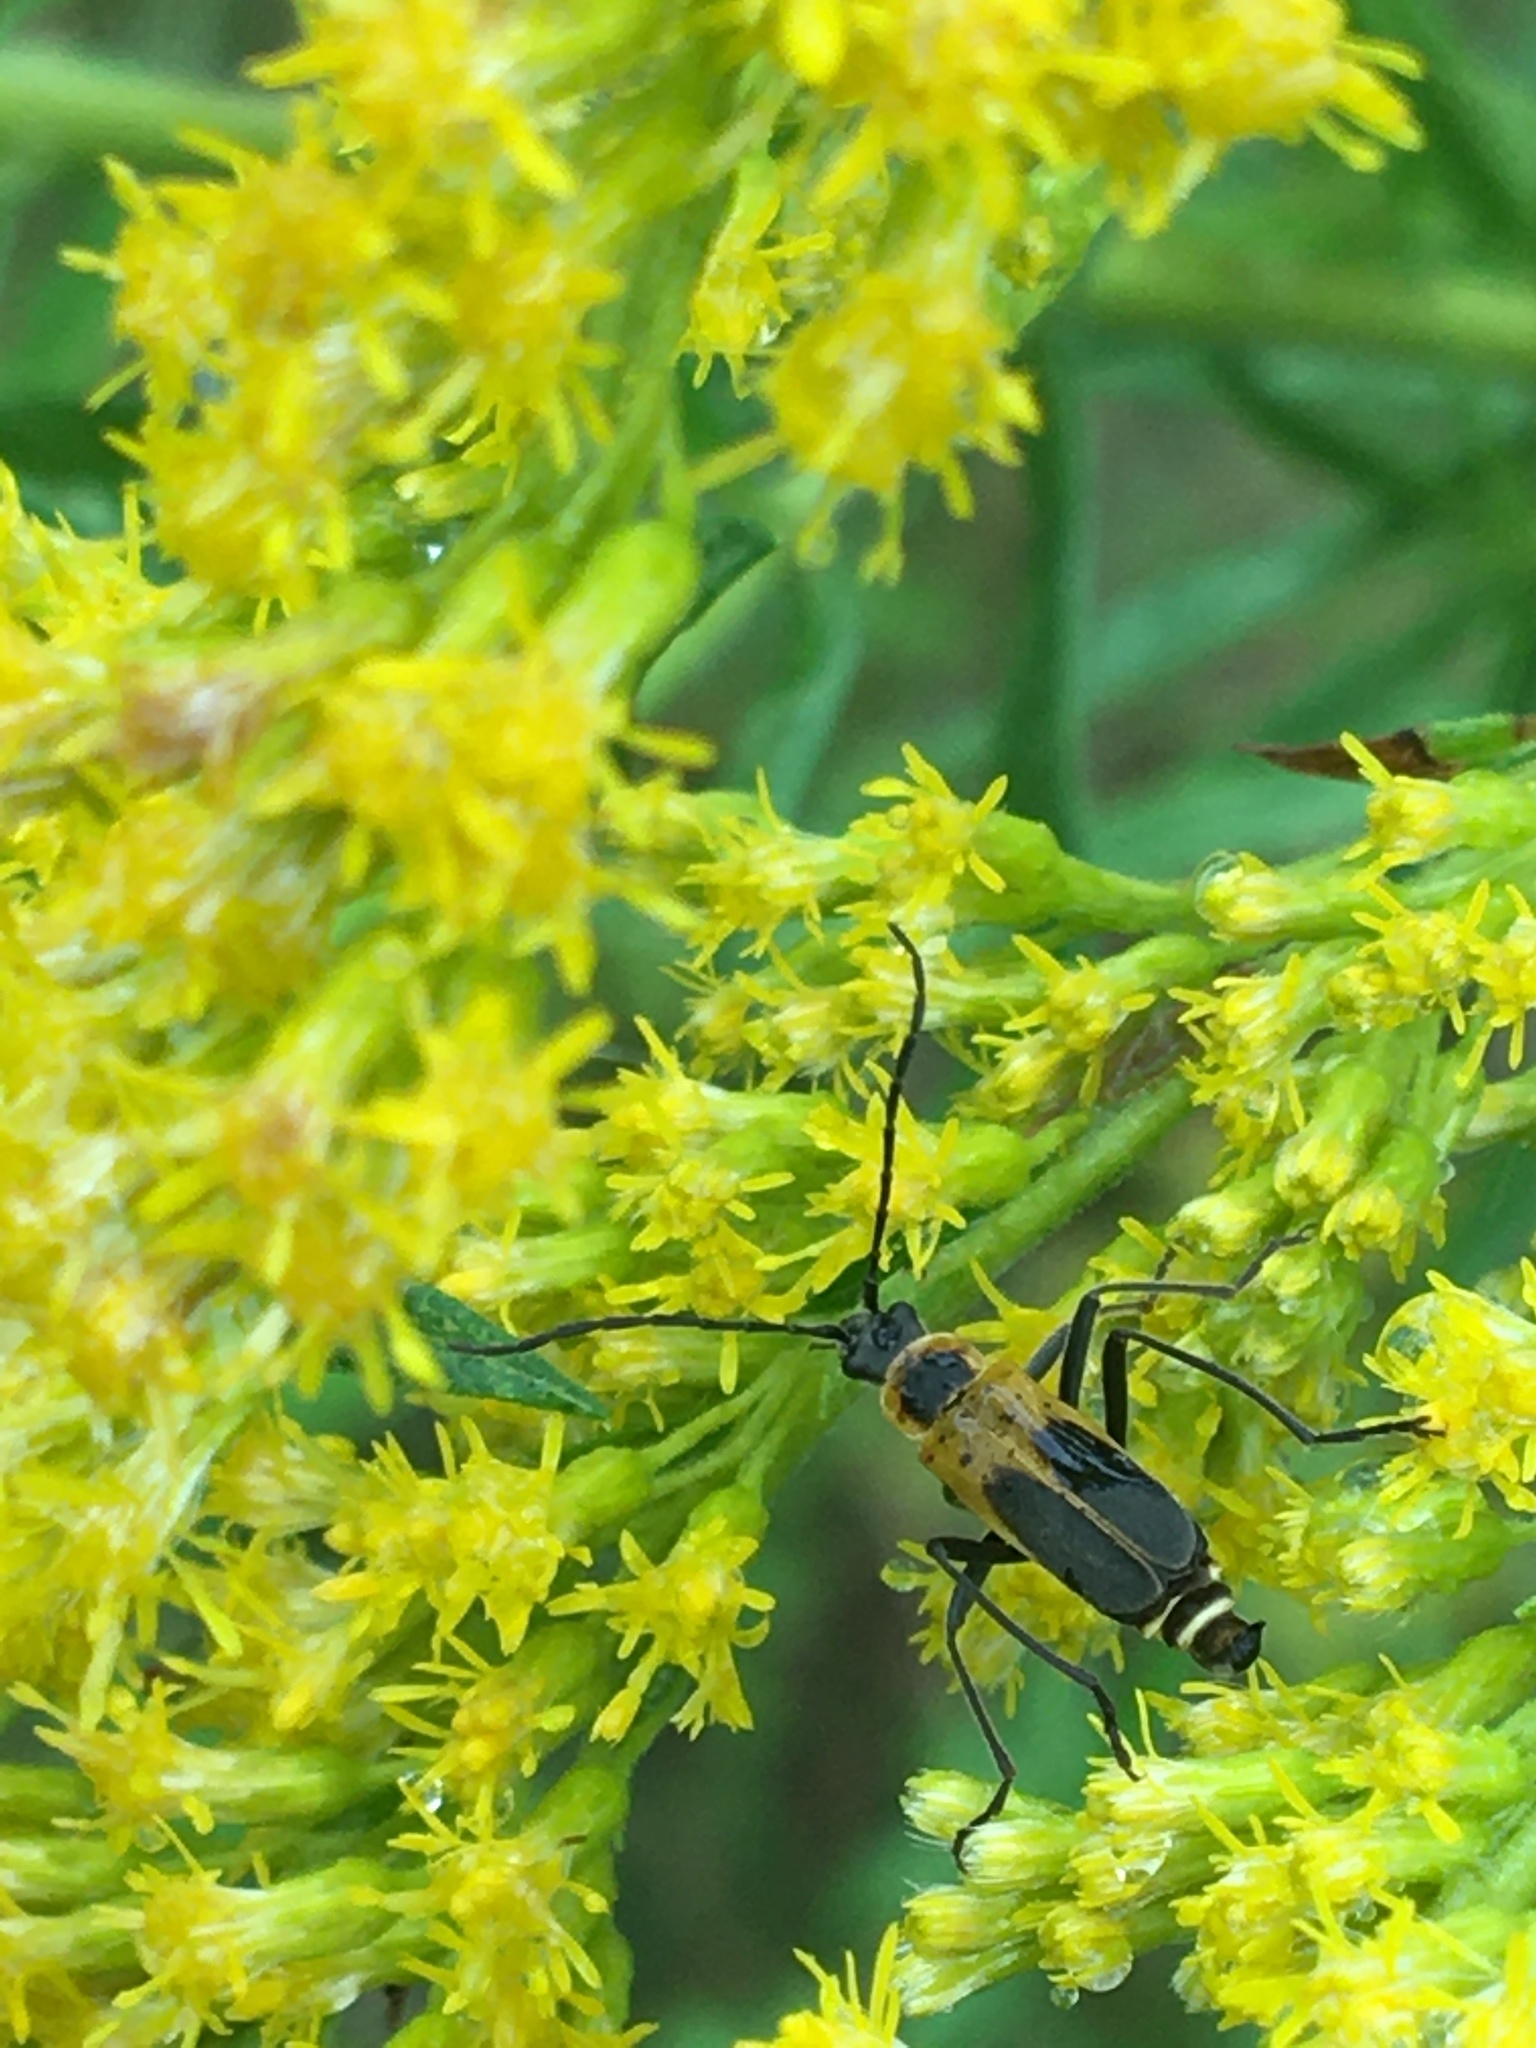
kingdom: Animalia
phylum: Arthropoda
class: Insecta
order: Coleoptera
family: Cantharidae
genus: Chauliognathus
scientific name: Chauliognathus pensylvanicus
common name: Goldenrod soldier beetle
